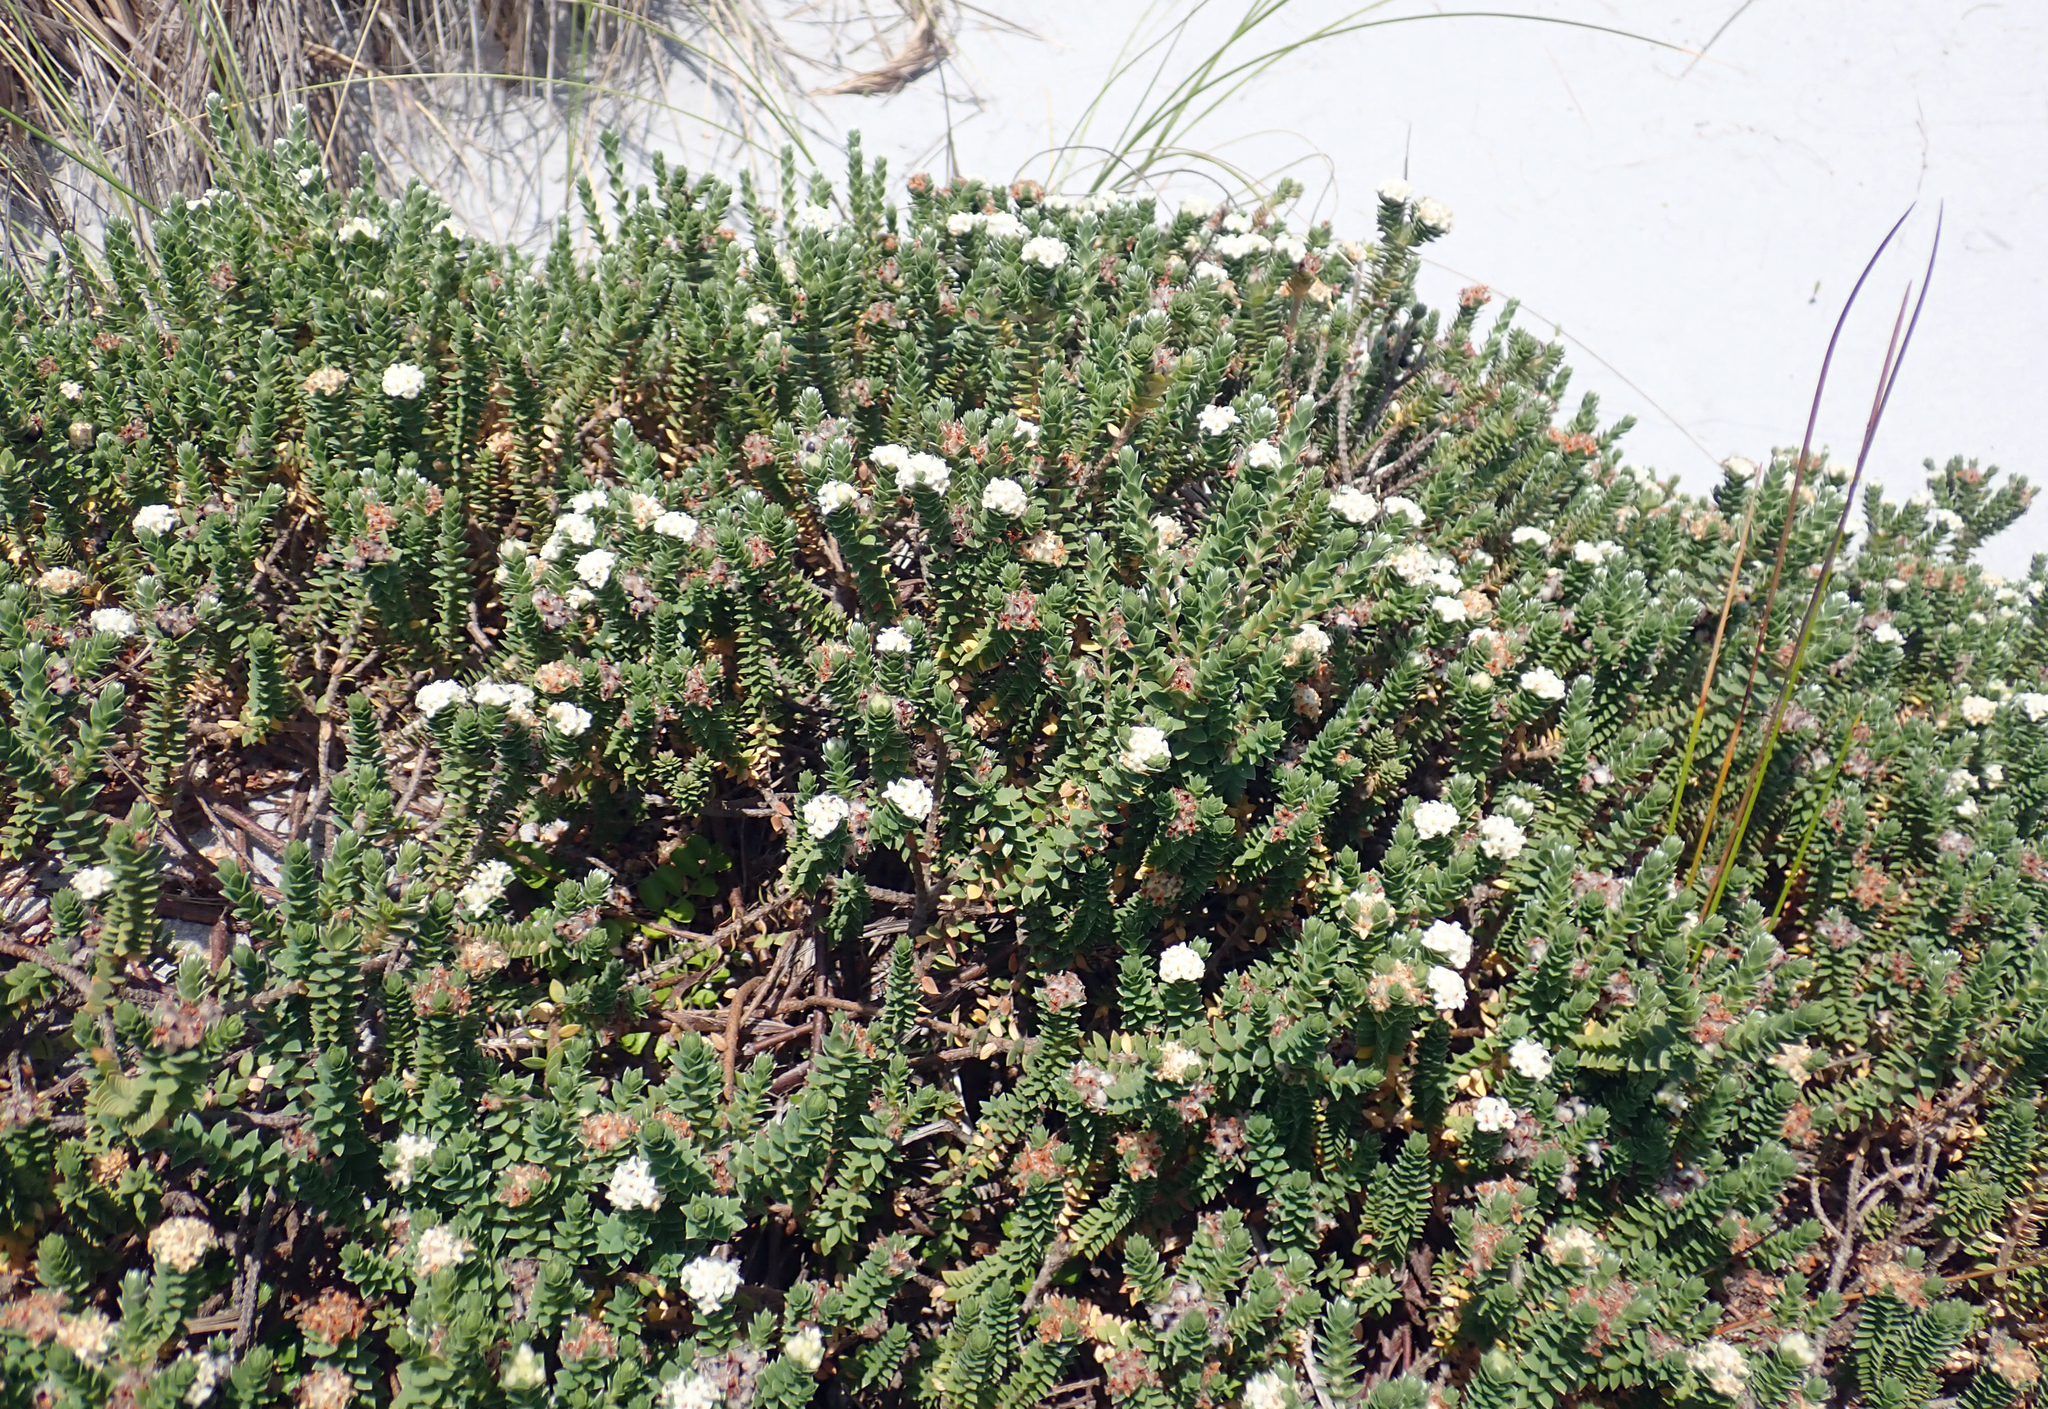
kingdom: Plantae
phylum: Tracheophyta
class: Magnoliopsida
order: Malvales
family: Thymelaeaceae
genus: Pimelea
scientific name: Pimelea villosa
